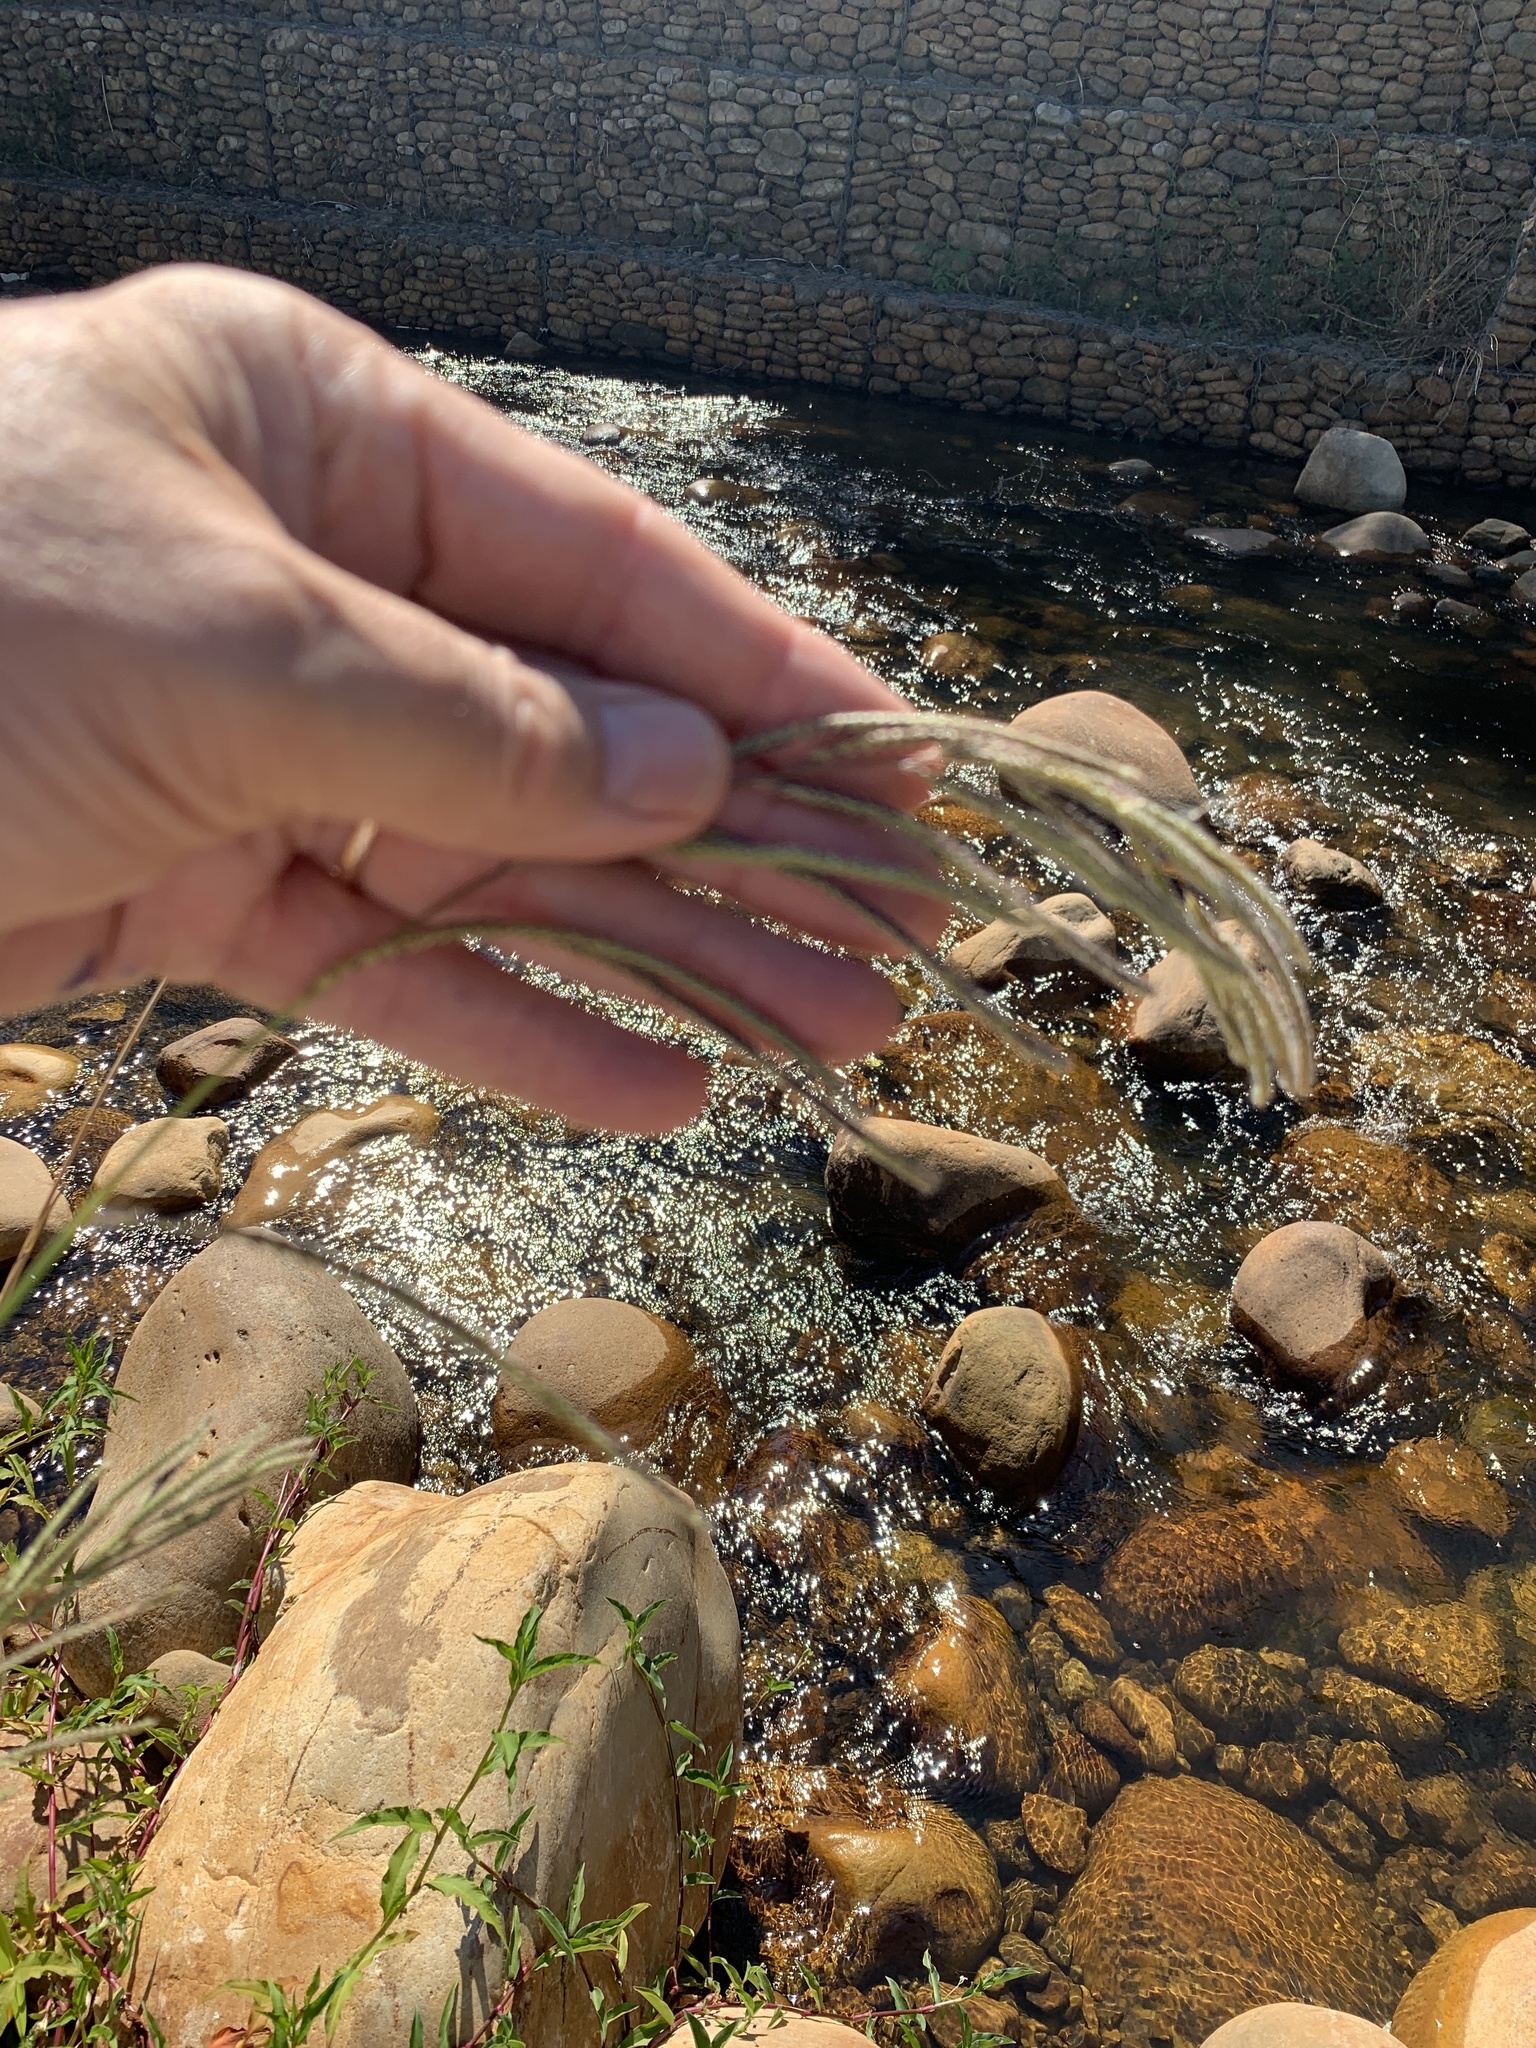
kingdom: Plantae
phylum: Tracheophyta
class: Liliopsida
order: Poales
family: Poaceae
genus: Paspalum
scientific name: Paspalum urvillei
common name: Vasey's grass
